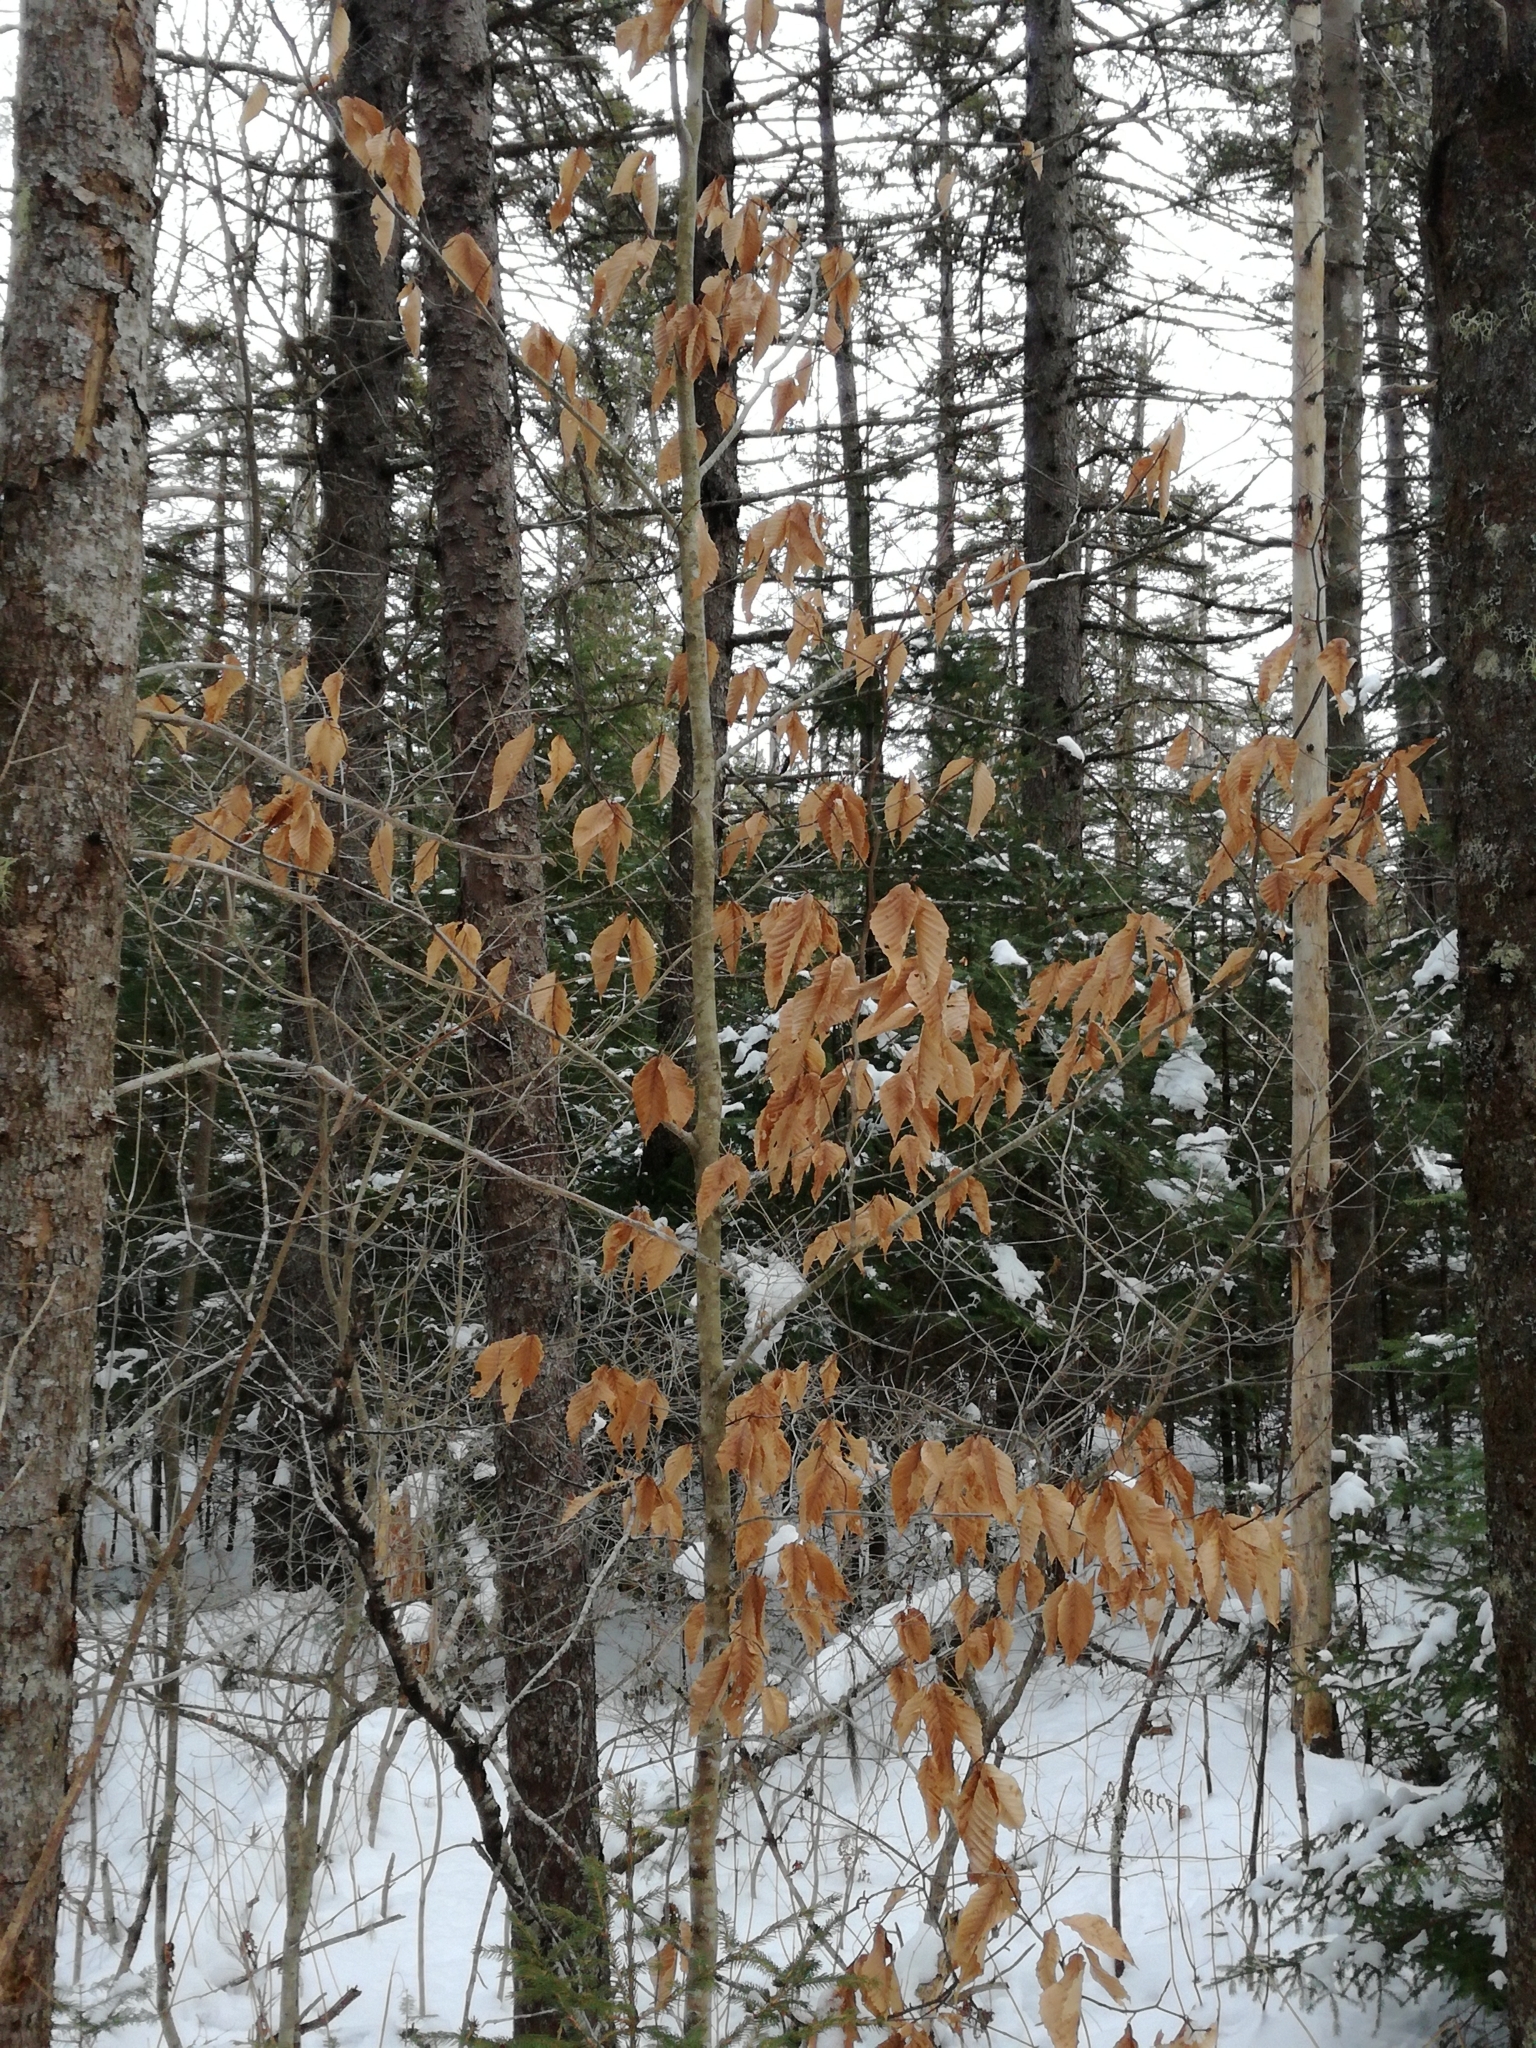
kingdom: Plantae
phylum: Tracheophyta
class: Magnoliopsida
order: Fagales
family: Fagaceae
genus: Fagus
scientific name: Fagus grandifolia
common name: American beech
